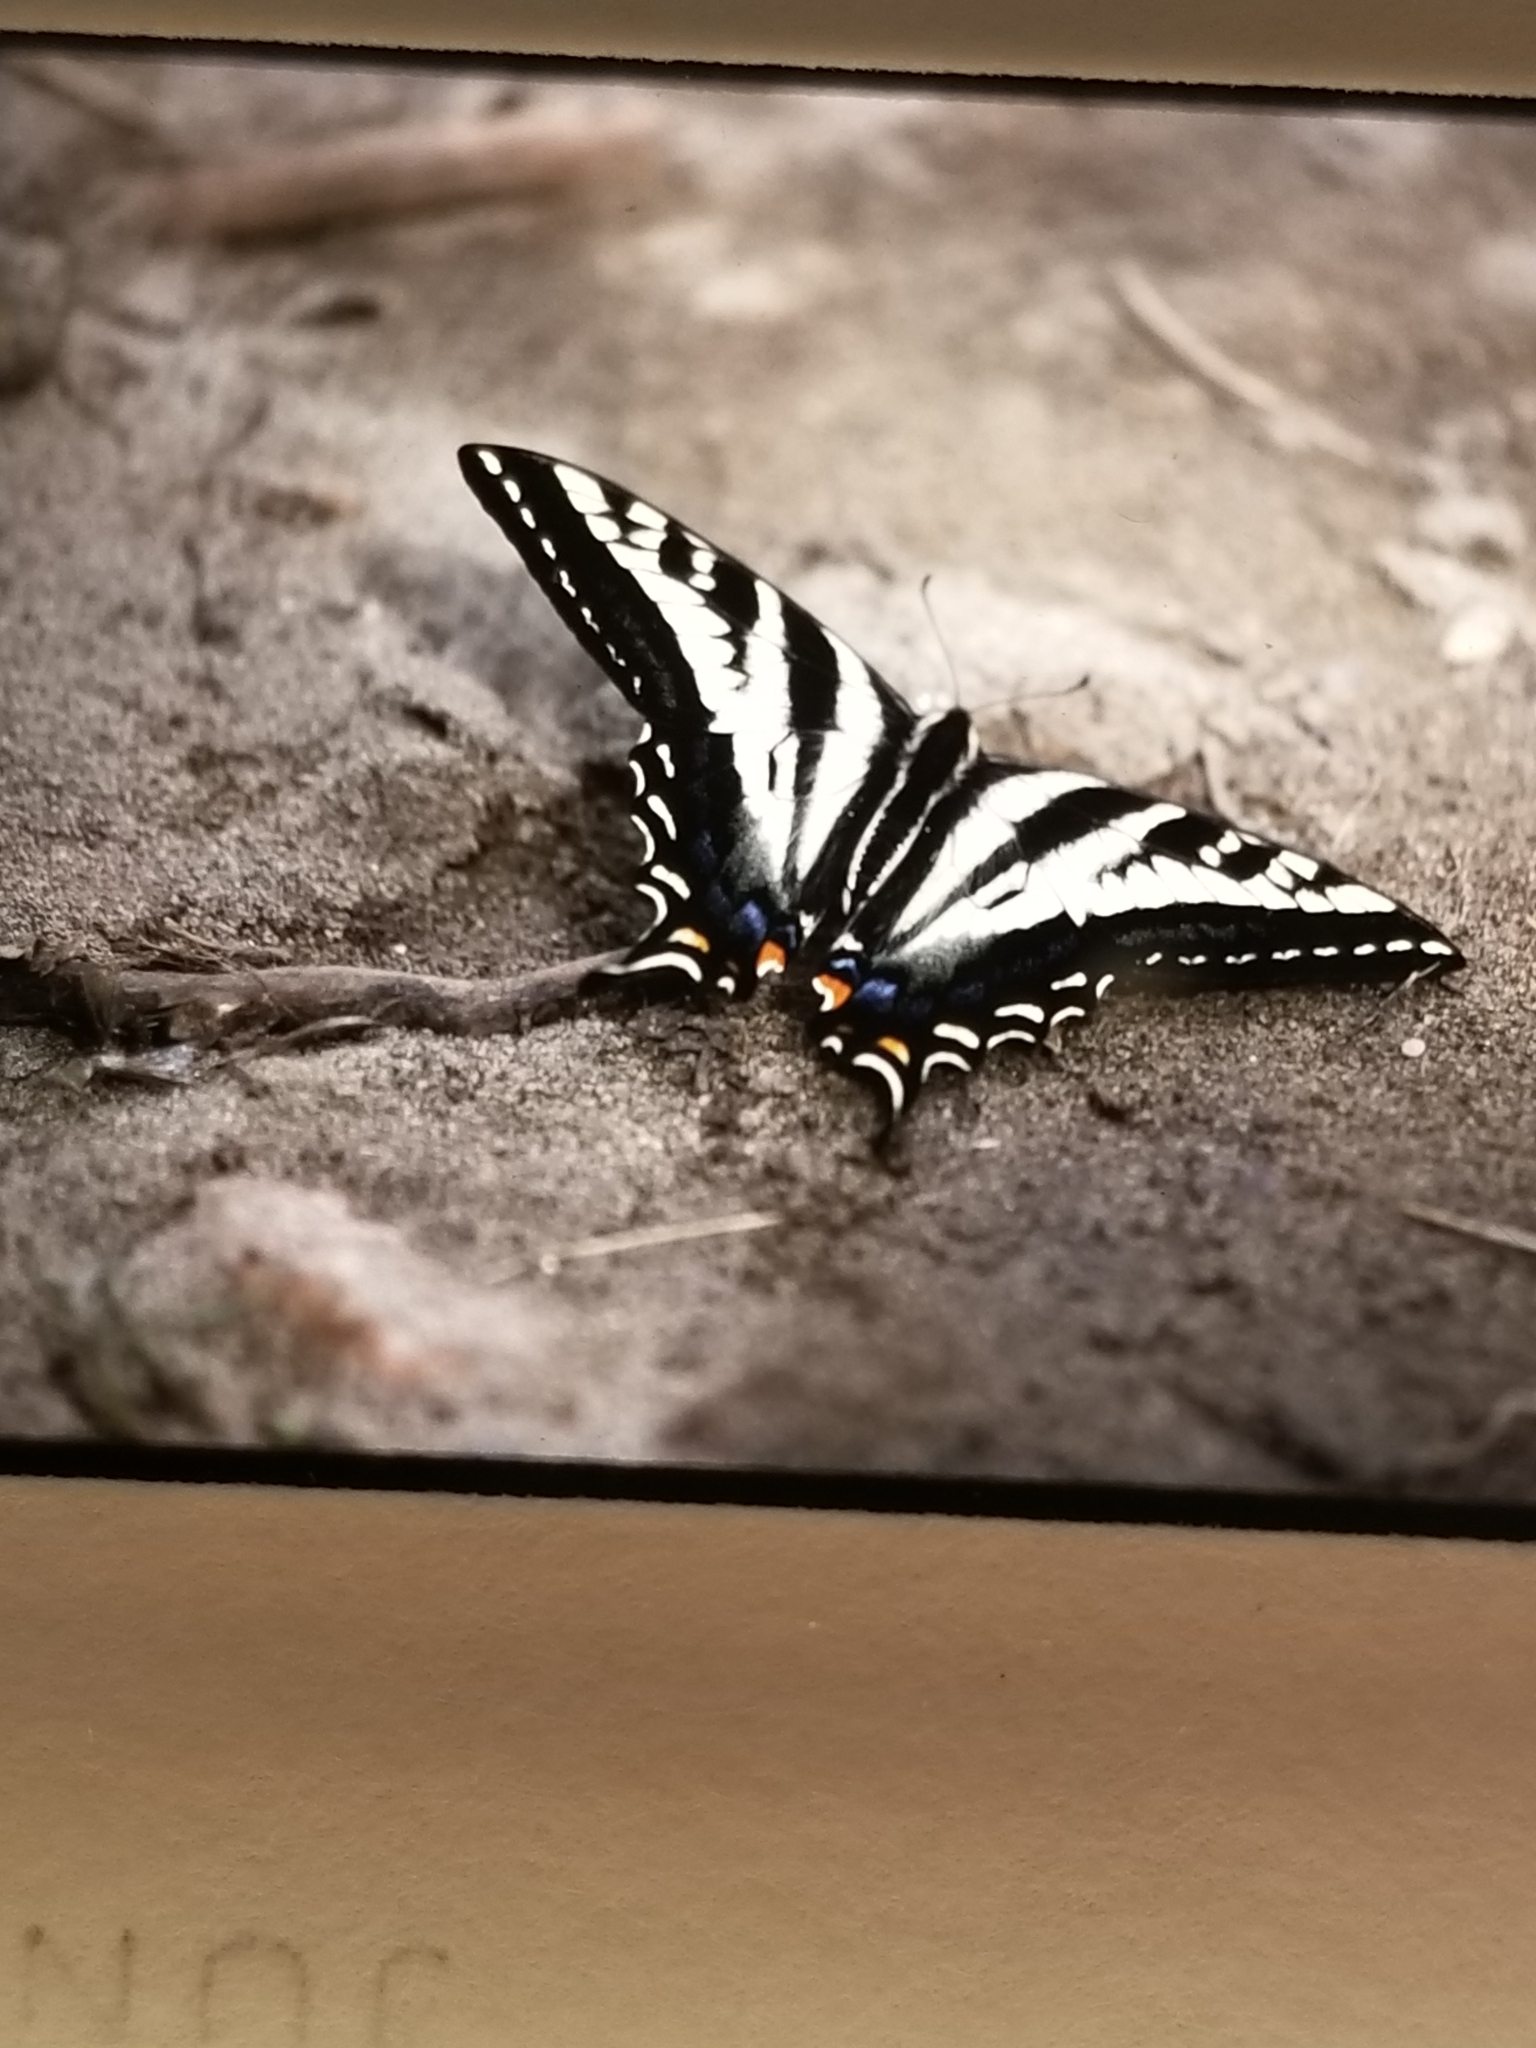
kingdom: Animalia
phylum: Arthropoda
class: Insecta
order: Lepidoptera
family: Papilionidae
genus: Papilio
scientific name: Papilio eurymedon
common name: Pale tiger swallowtail
